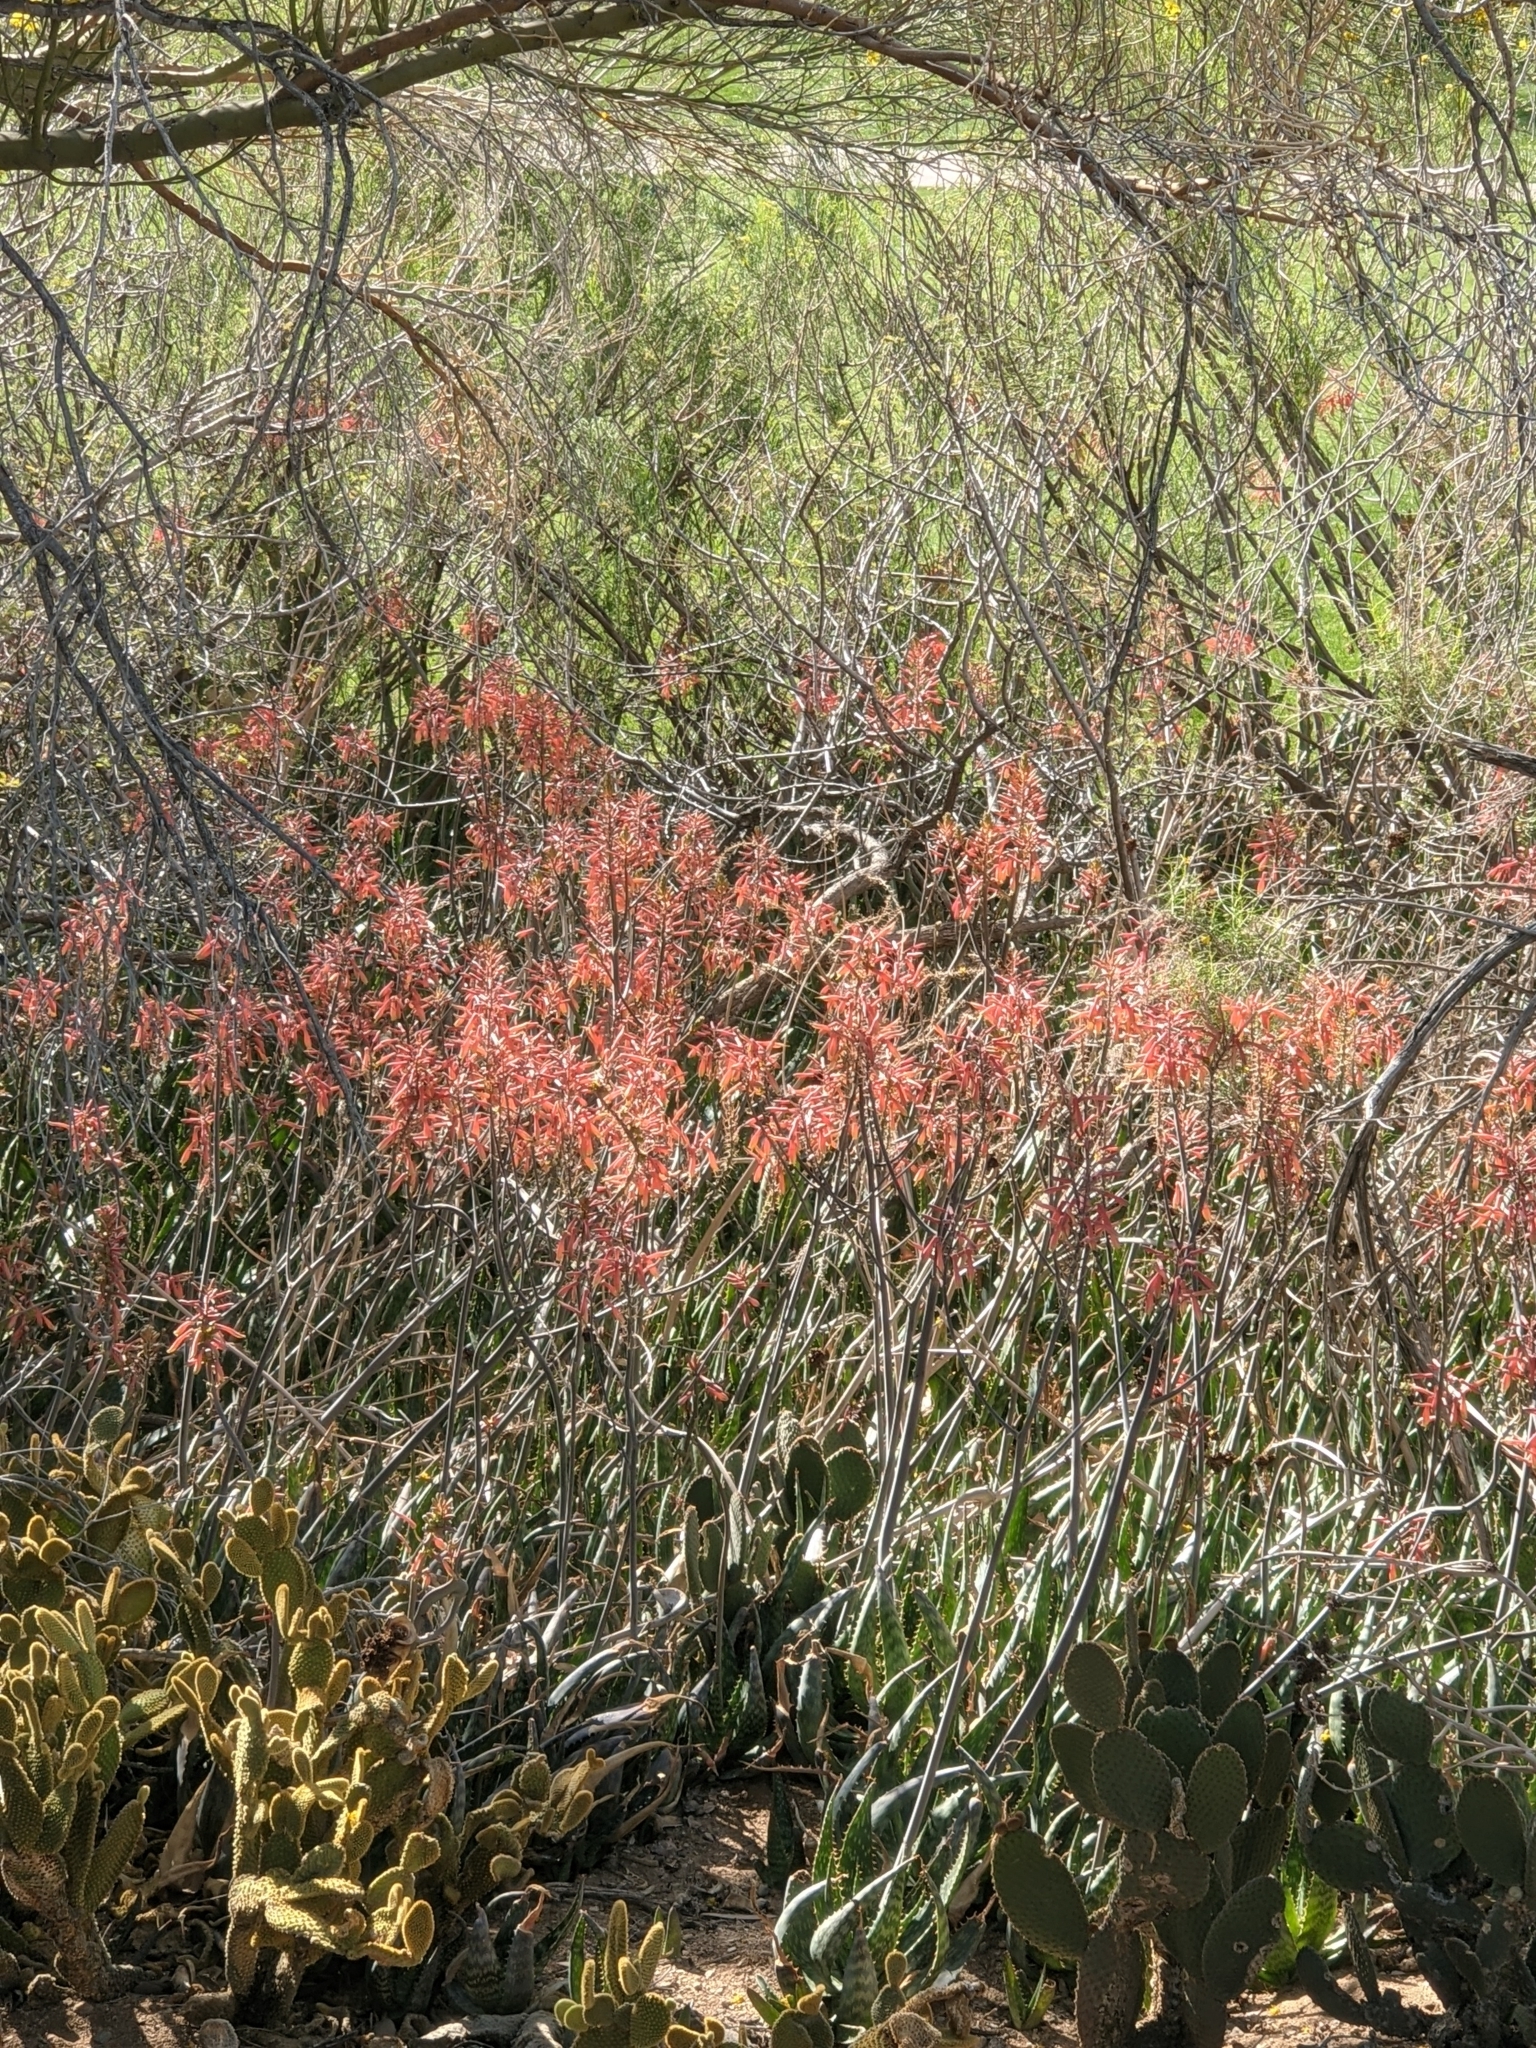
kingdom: Plantae
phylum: Tracheophyta
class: Liliopsida
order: Asparagales
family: Asphodelaceae
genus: Aloe
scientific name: Aloe maculata
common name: Broadleaf aloe
